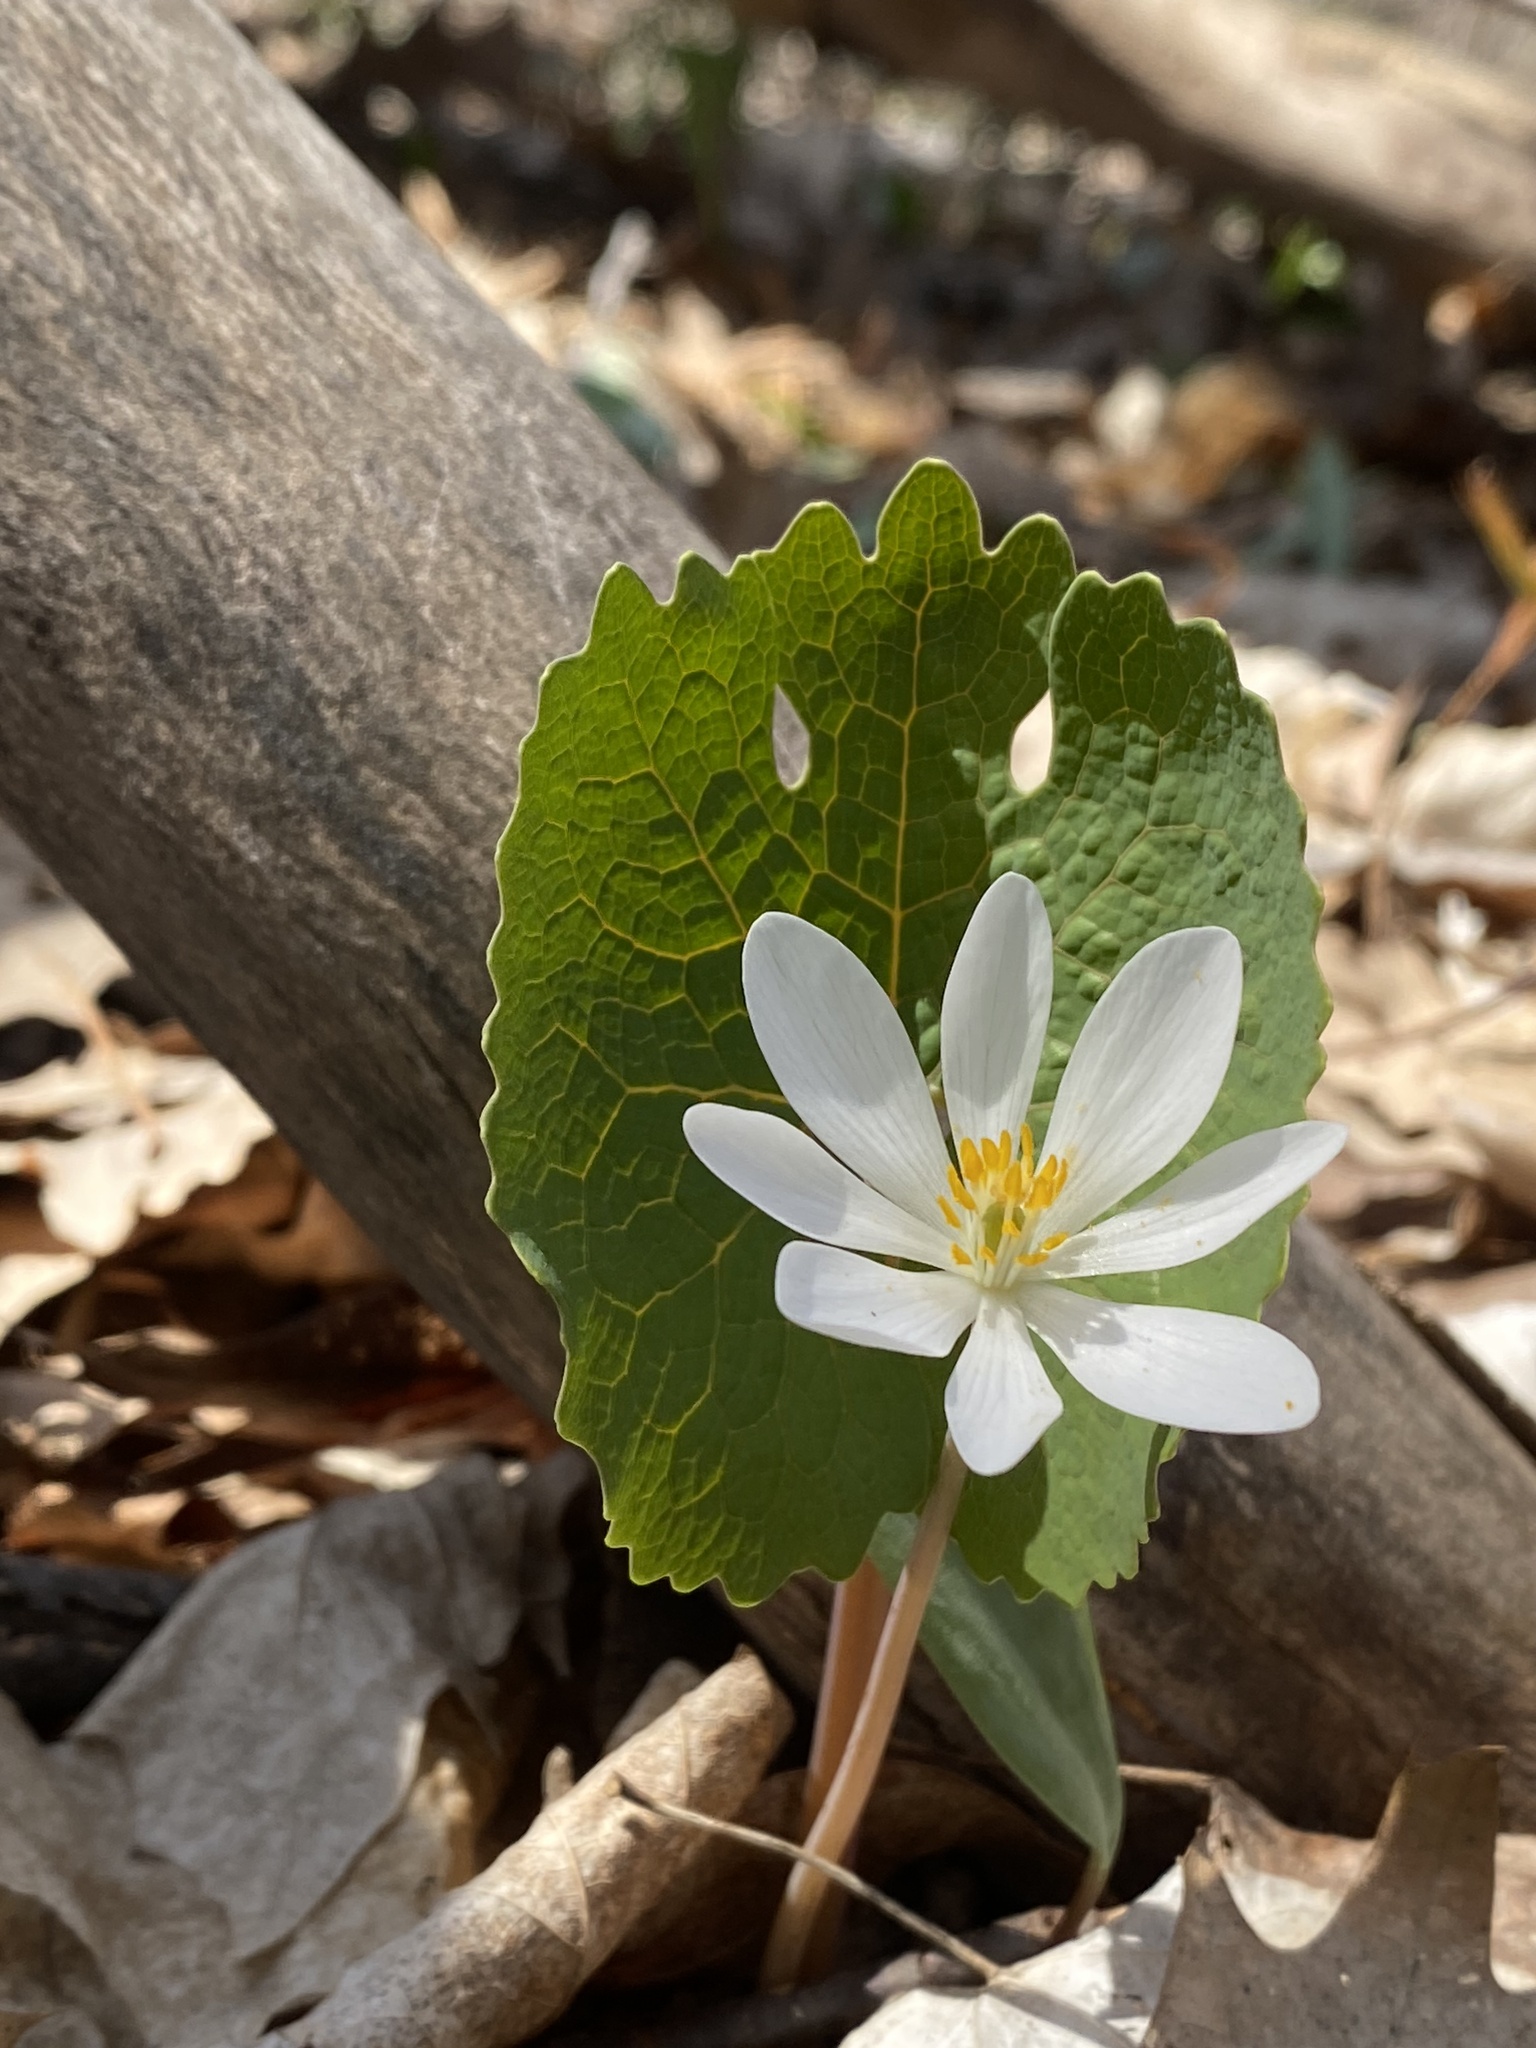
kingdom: Plantae
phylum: Tracheophyta
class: Magnoliopsida
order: Ranunculales
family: Papaveraceae
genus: Sanguinaria
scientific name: Sanguinaria canadensis
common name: Bloodroot
